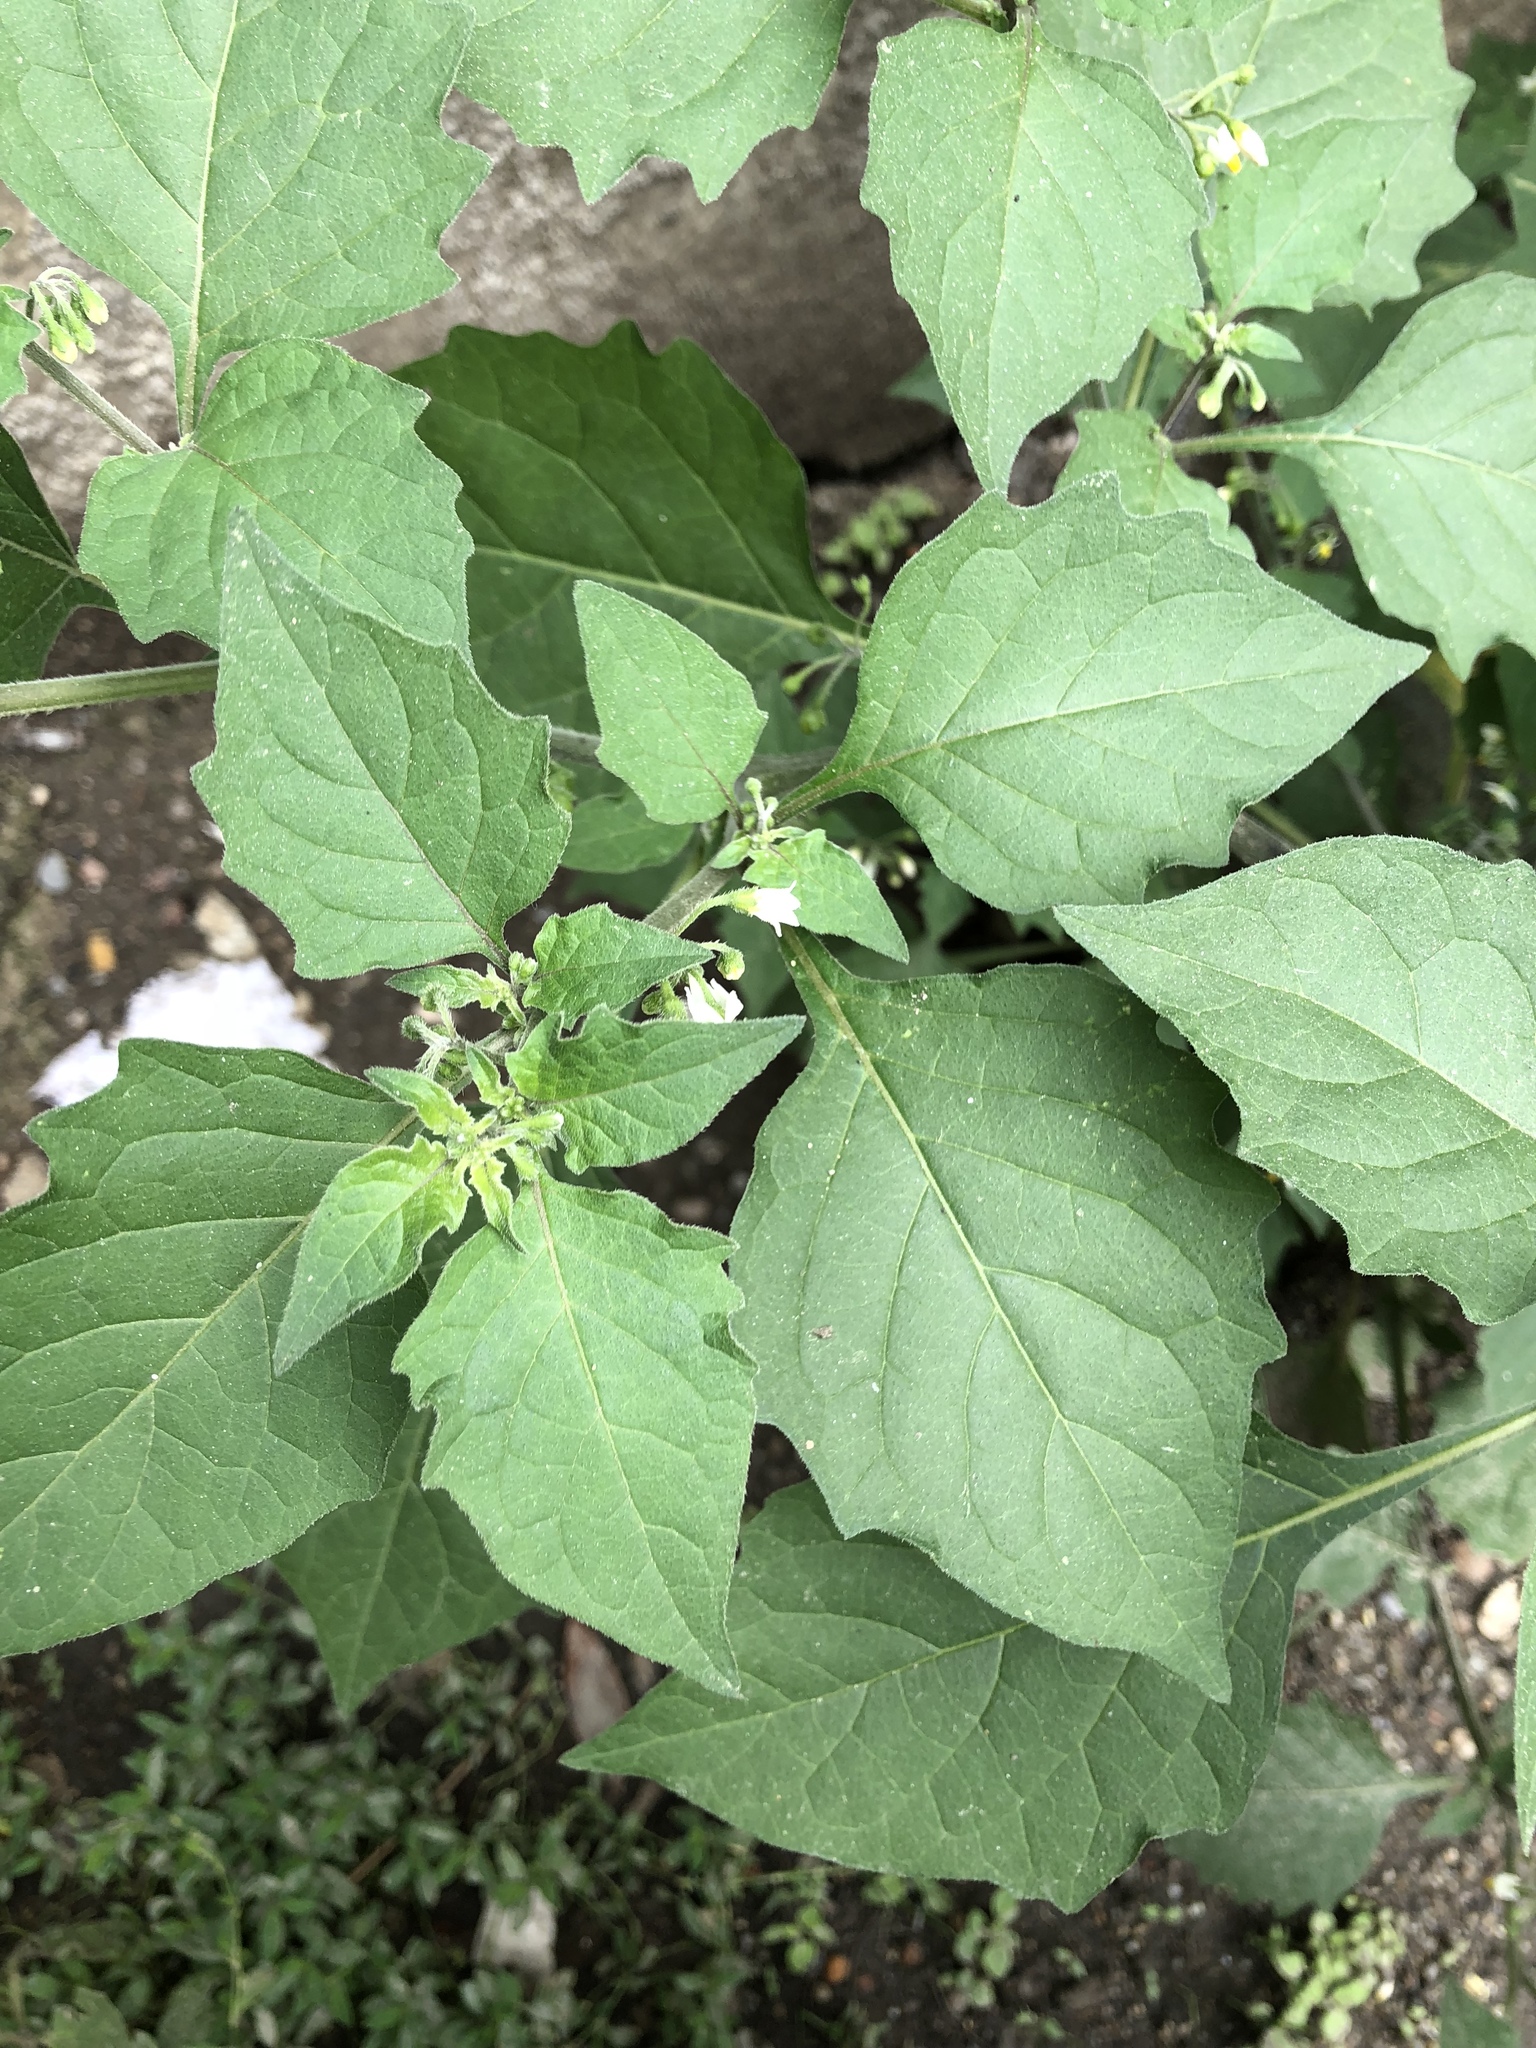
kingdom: Plantae
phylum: Tracheophyta
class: Magnoliopsida
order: Solanales
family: Solanaceae
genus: Solanum
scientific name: Solanum nigrum
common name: Black nightshade
